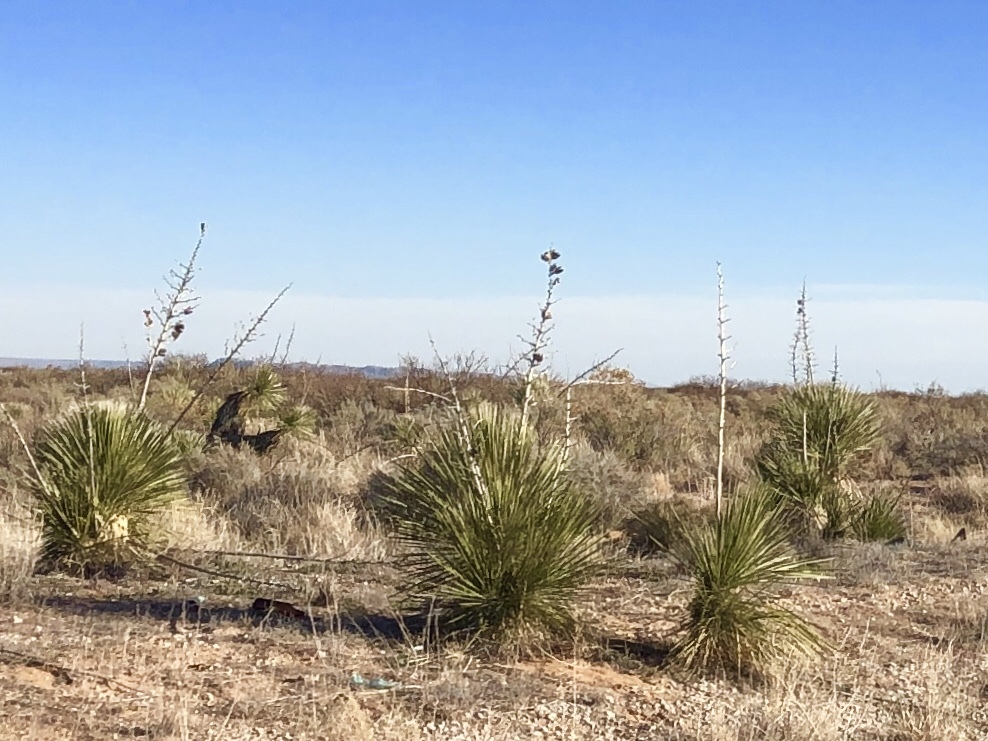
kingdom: Plantae
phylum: Tracheophyta
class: Liliopsida
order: Asparagales
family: Asparagaceae
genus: Yucca
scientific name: Yucca elata
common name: Palmella
